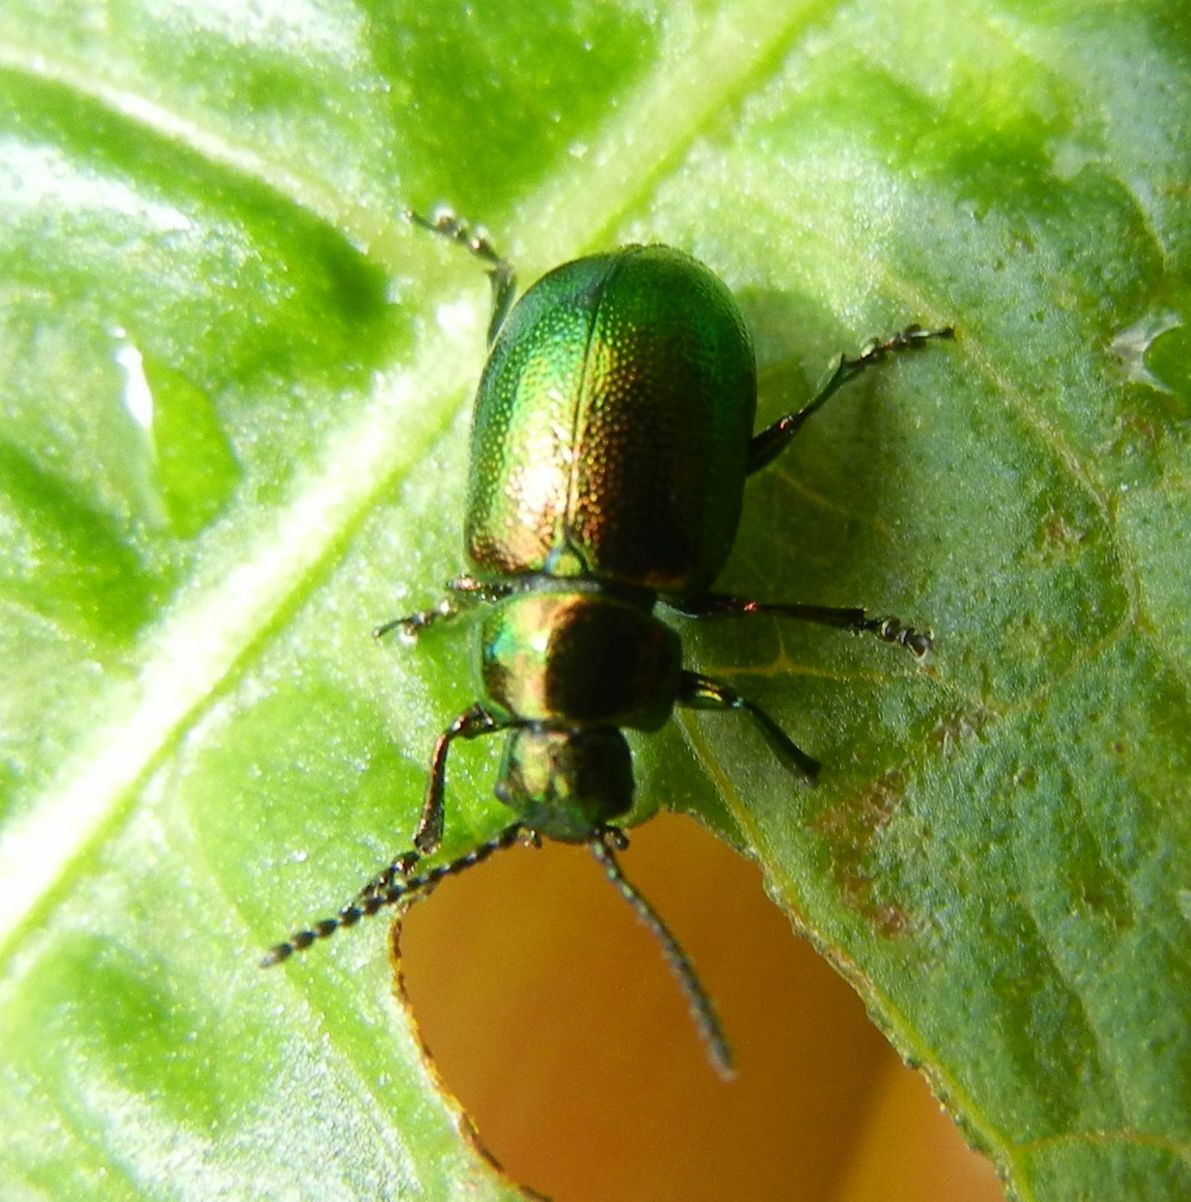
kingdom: Animalia
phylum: Arthropoda
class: Insecta
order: Coleoptera
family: Chrysomelidae
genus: Gastrophysa
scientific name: Gastrophysa viridula
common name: Green dock beetle
